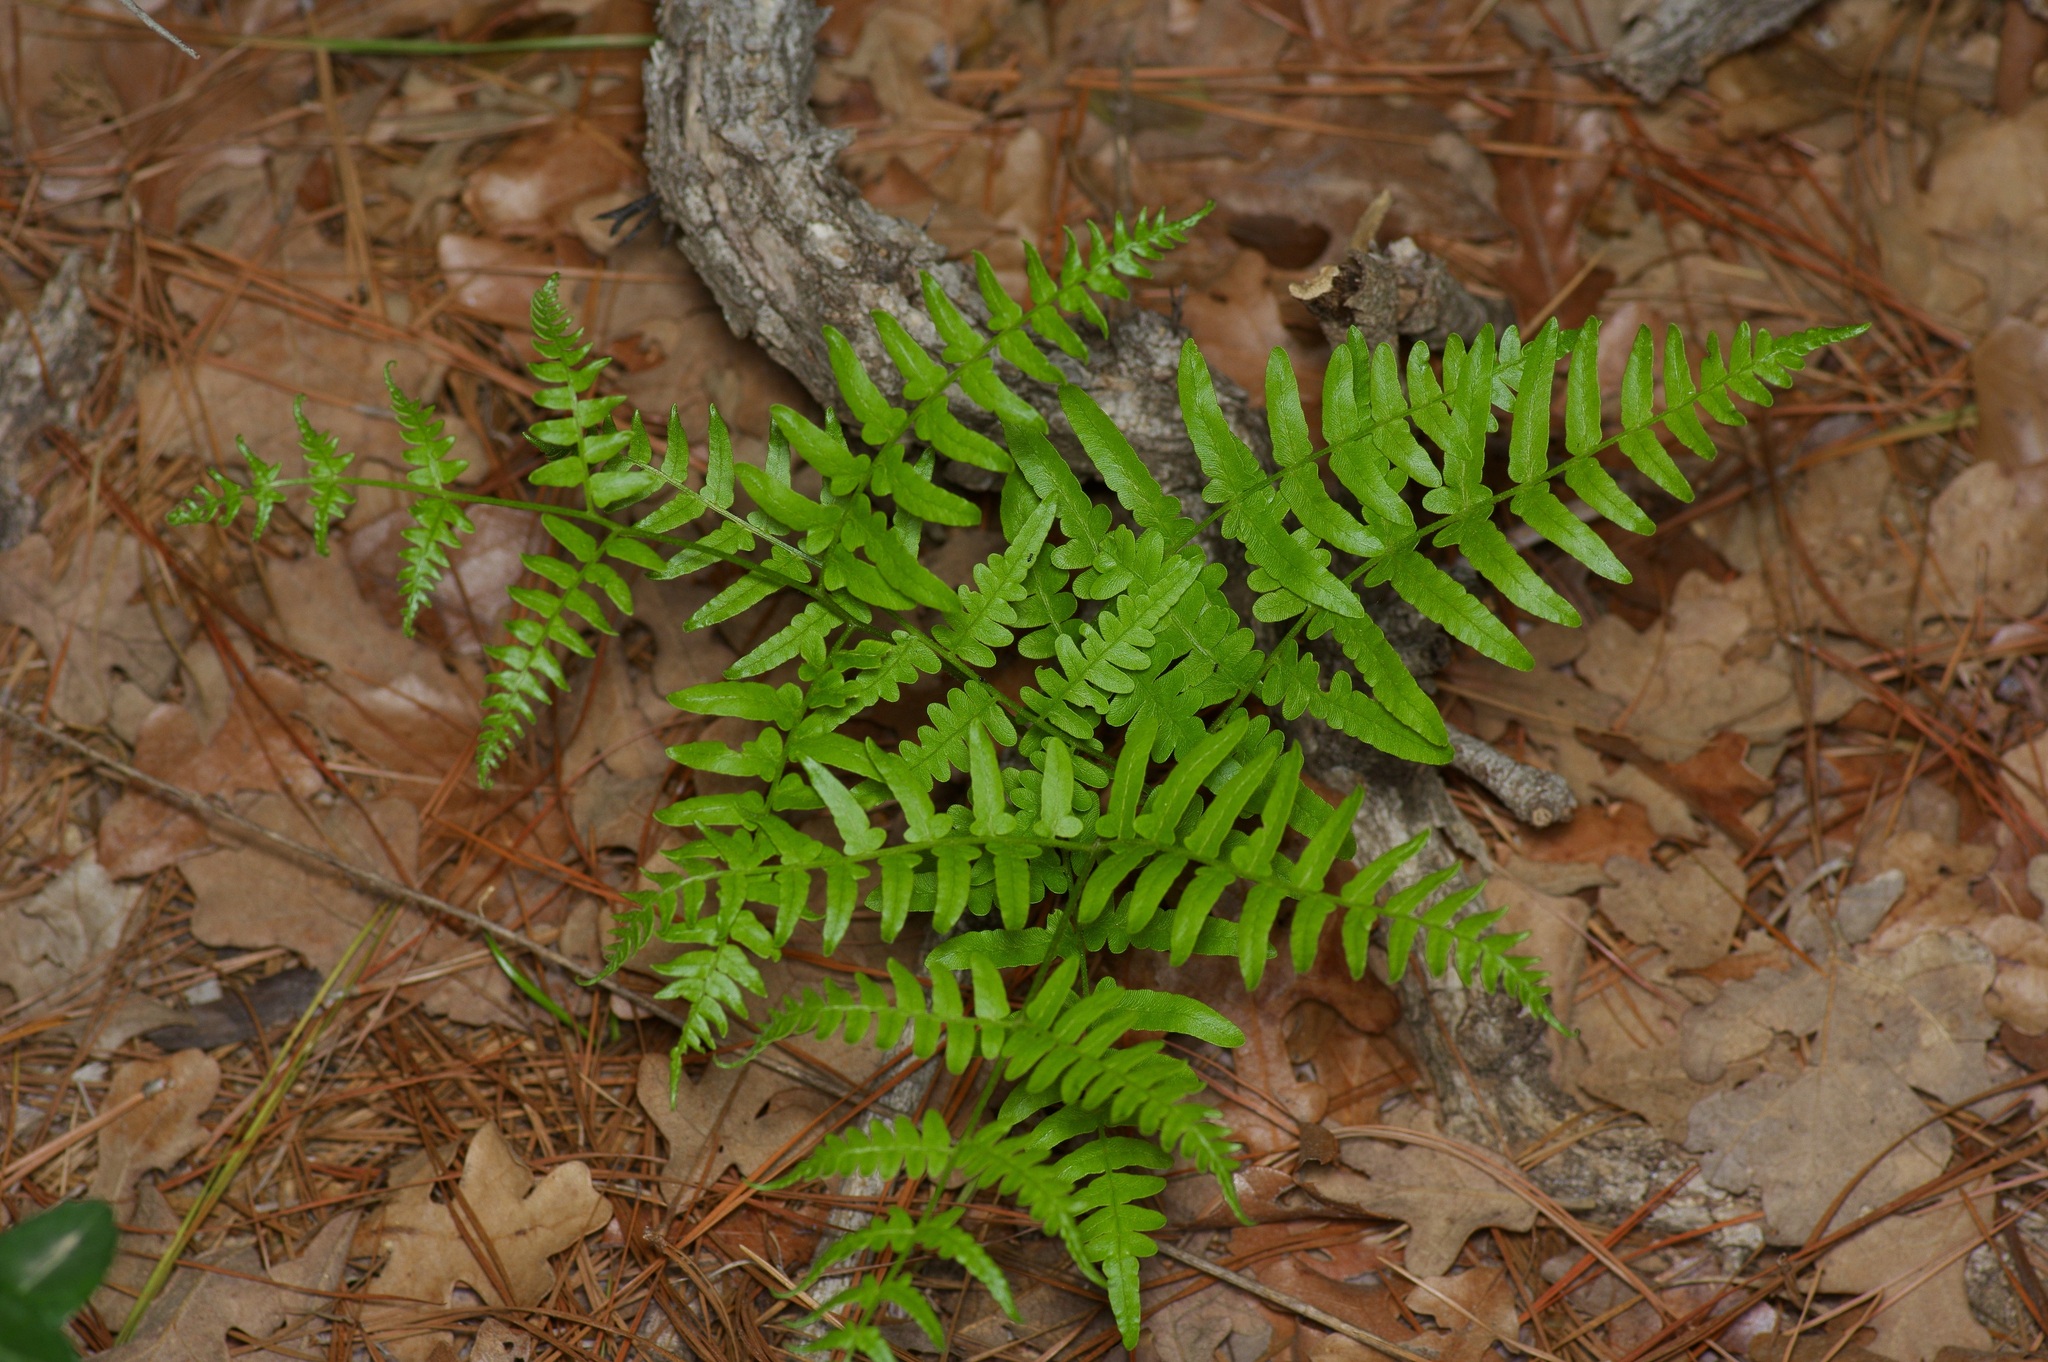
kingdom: Plantae
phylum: Tracheophyta
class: Polypodiopsida
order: Polypodiales
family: Dennstaedtiaceae
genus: Pteridium
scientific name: Pteridium aquilinum
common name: Bracken
